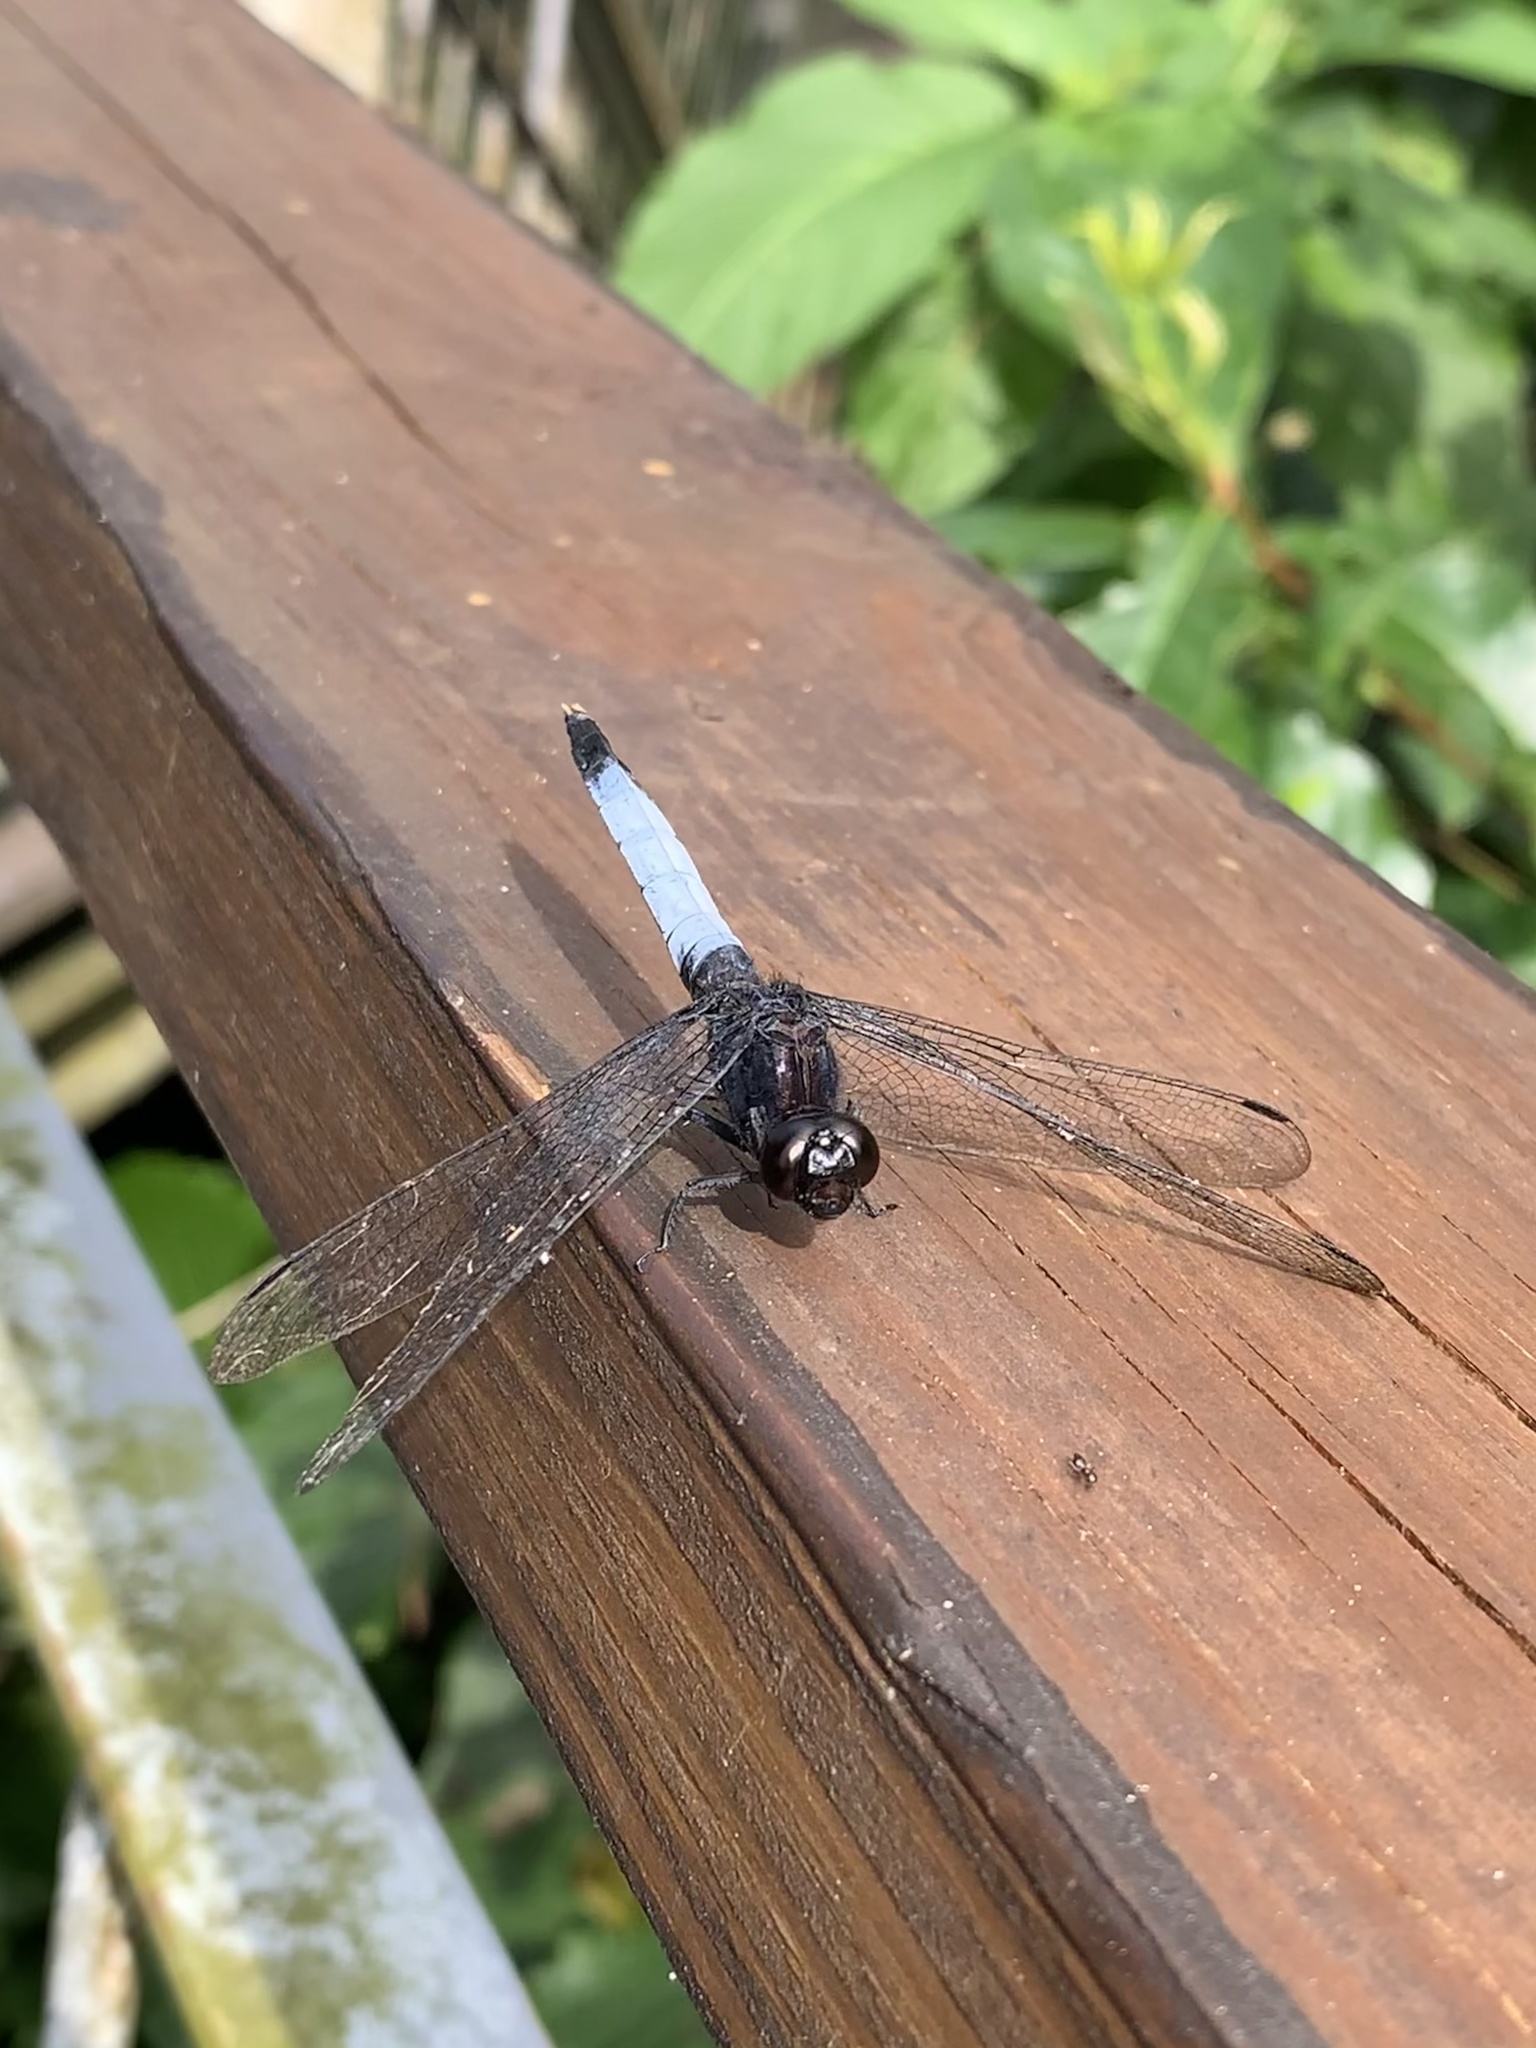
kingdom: Animalia
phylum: Arthropoda
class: Insecta
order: Odonata
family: Libellulidae
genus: Orthetrum
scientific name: Orthetrum triangulare
